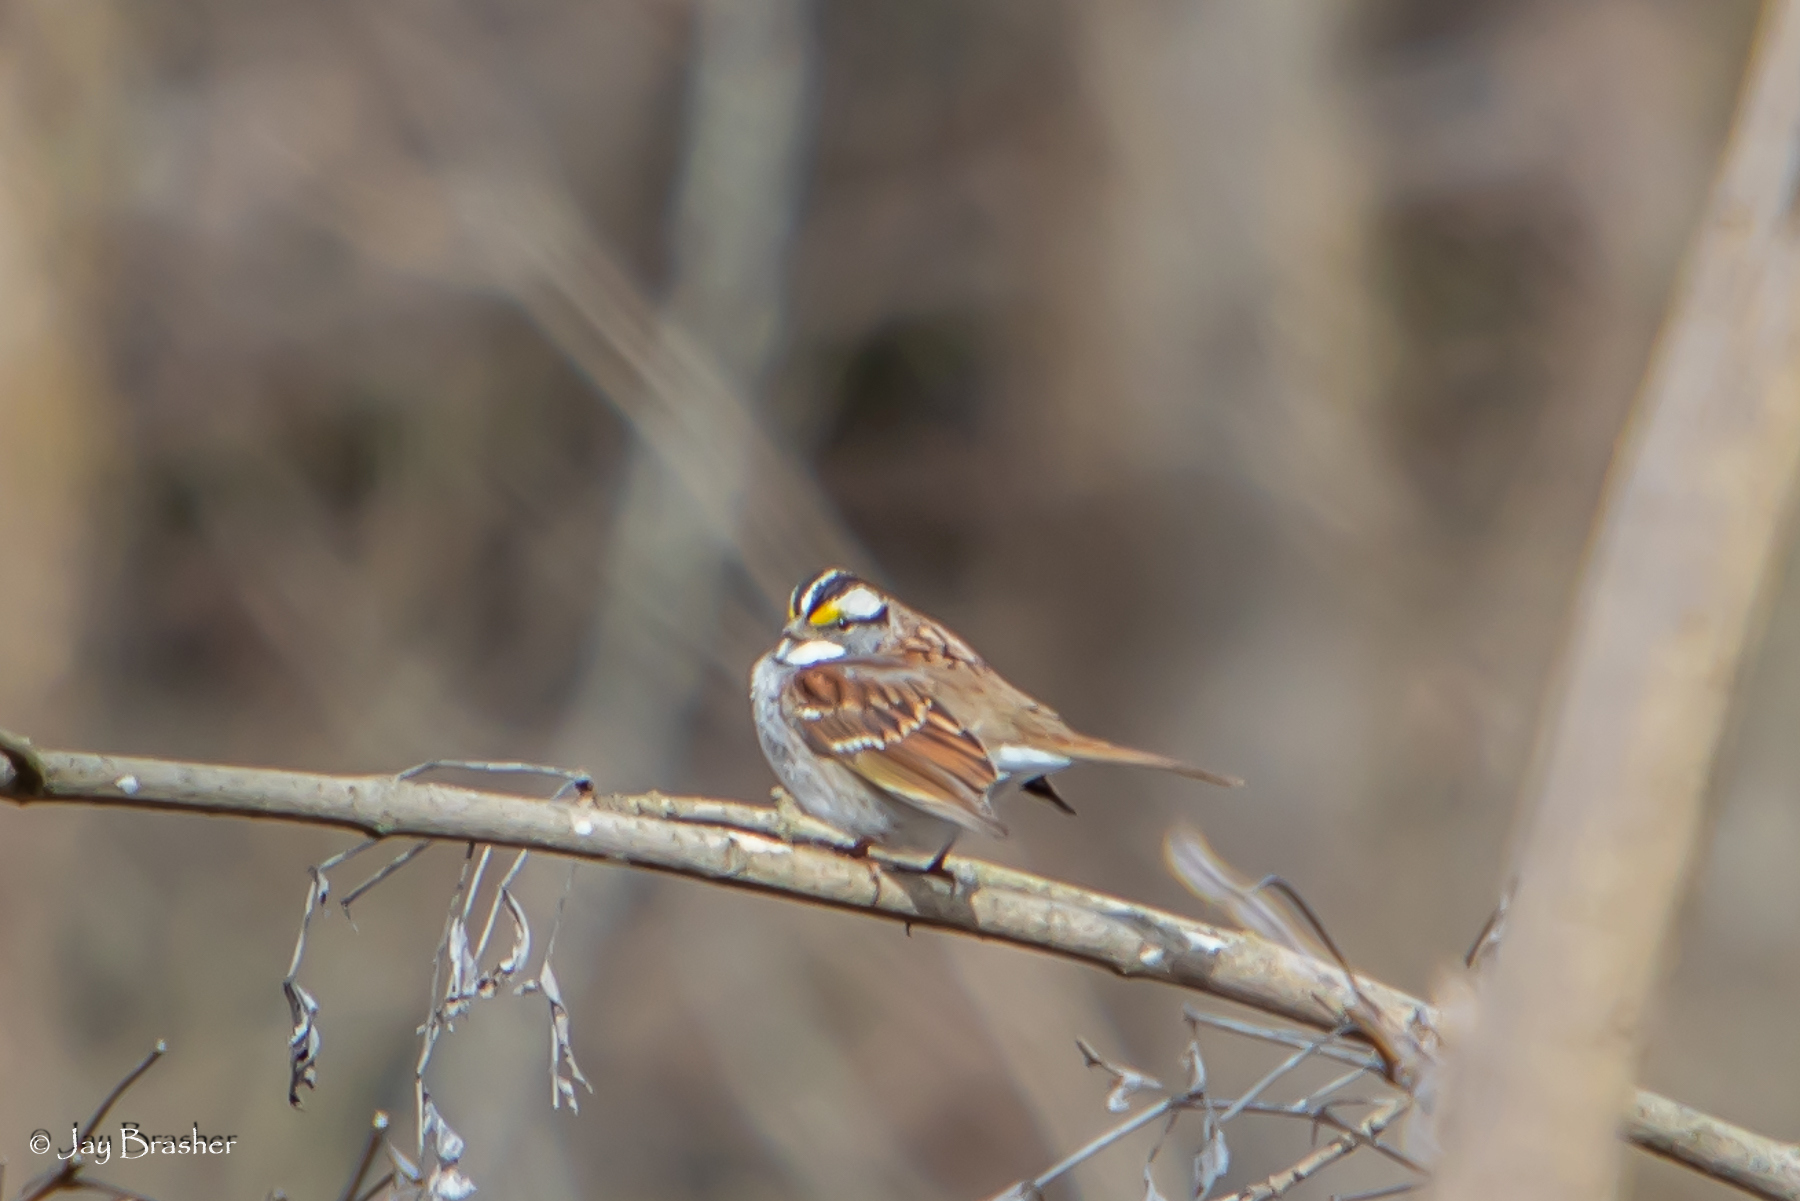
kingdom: Animalia
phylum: Chordata
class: Aves
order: Passeriformes
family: Passerellidae
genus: Zonotrichia
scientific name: Zonotrichia albicollis
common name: White-throated sparrow
